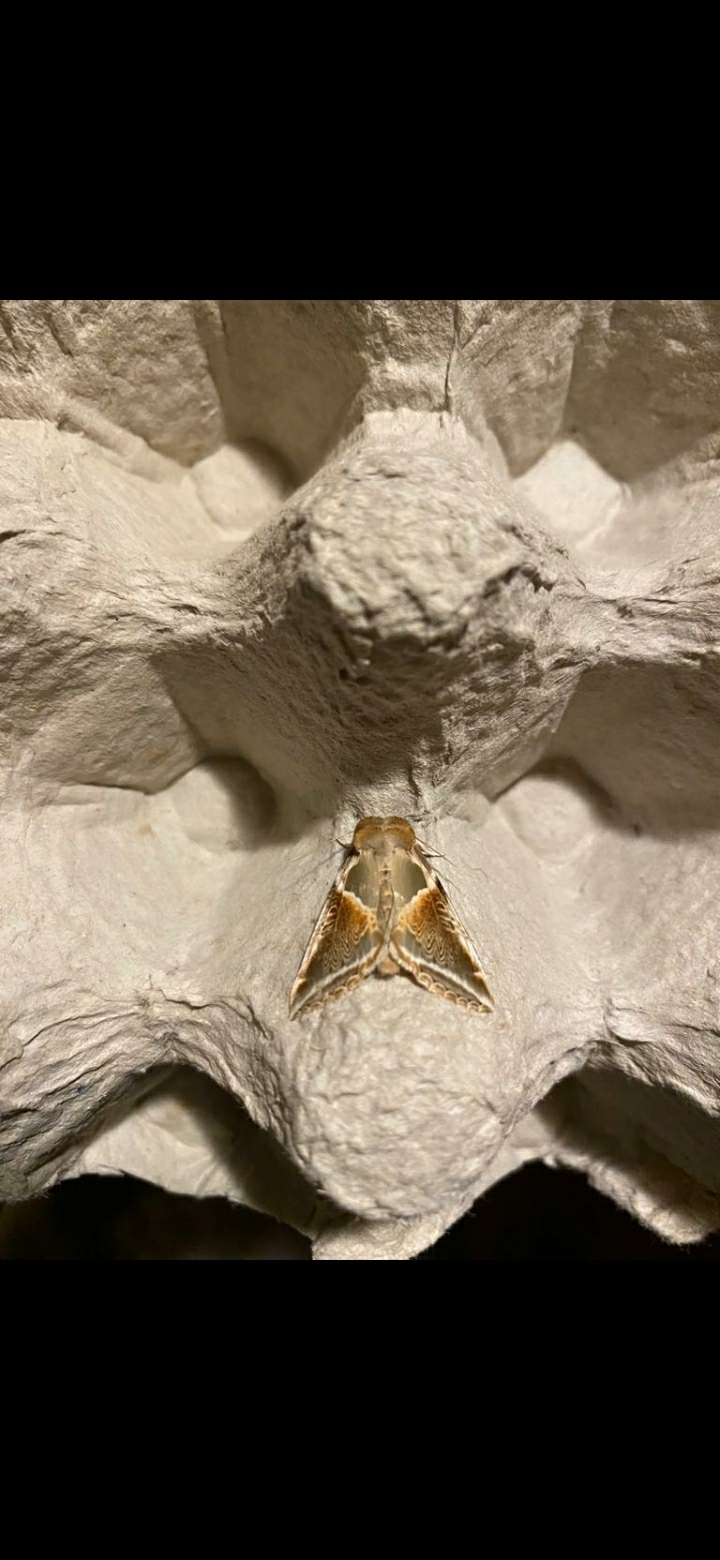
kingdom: Animalia
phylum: Arthropoda
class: Insecta
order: Lepidoptera
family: Drepanidae
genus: Habrosyne
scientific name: Habrosyne pyritoides
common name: Buff arches
